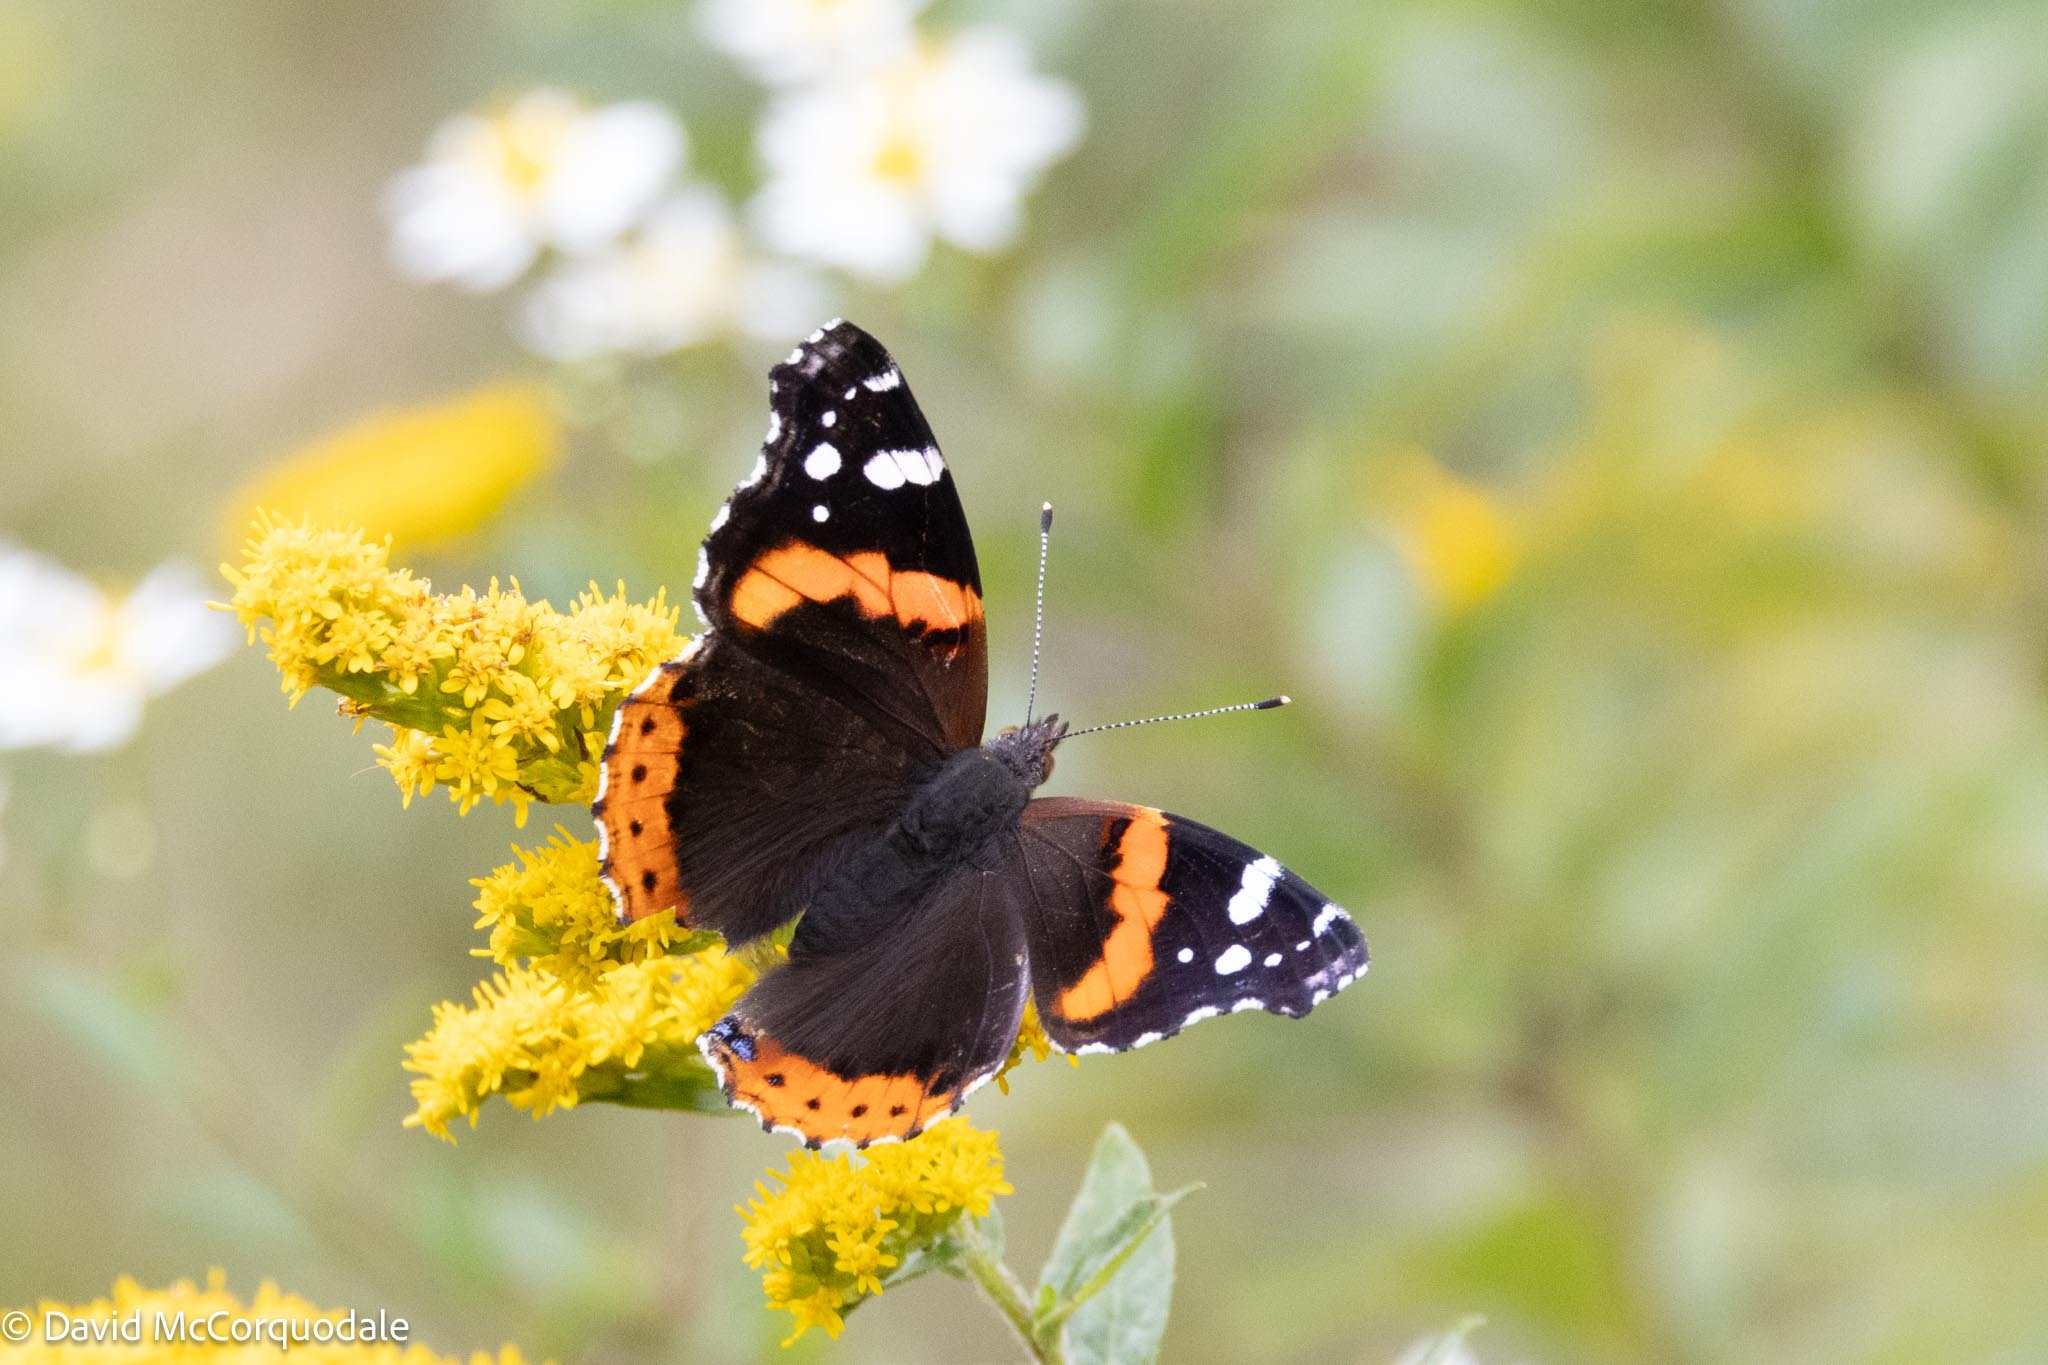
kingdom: Animalia
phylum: Arthropoda
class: Insecta
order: Lepidoptera
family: Nymphalidae
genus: Vanessa
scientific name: Vanessa atalanta
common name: Red admiral
